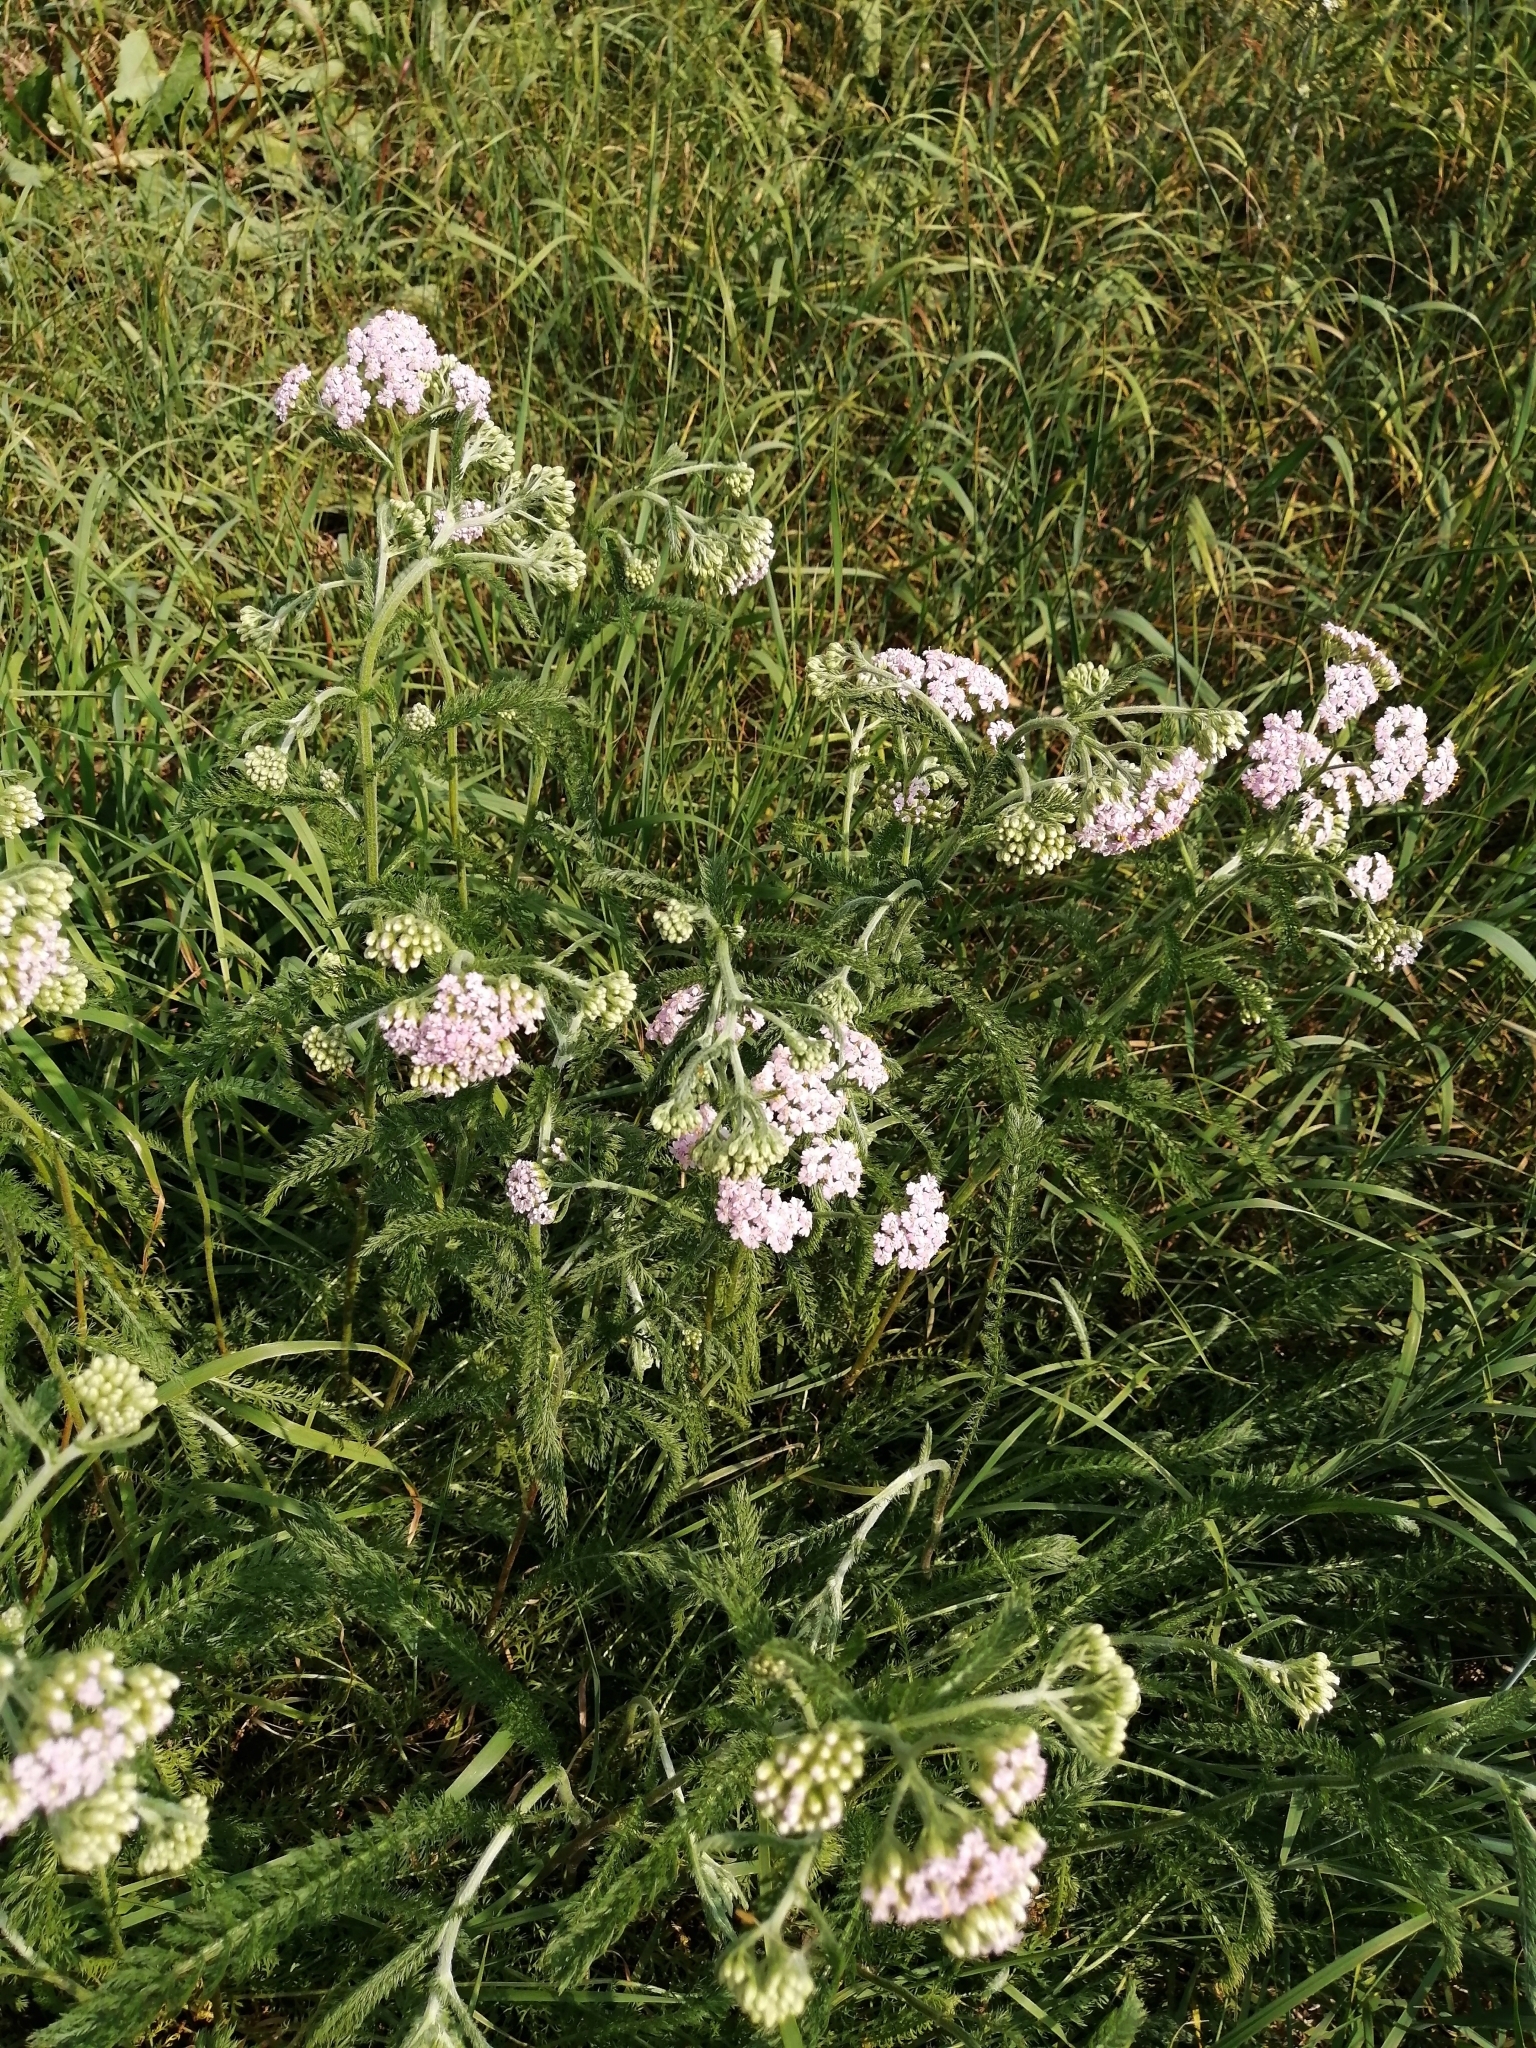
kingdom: Plantae
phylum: Tracheophyta
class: Magnoliopsida
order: Asterales
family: Asteraceae
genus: Achillea
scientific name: Achillea millefolium
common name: Yarrow
